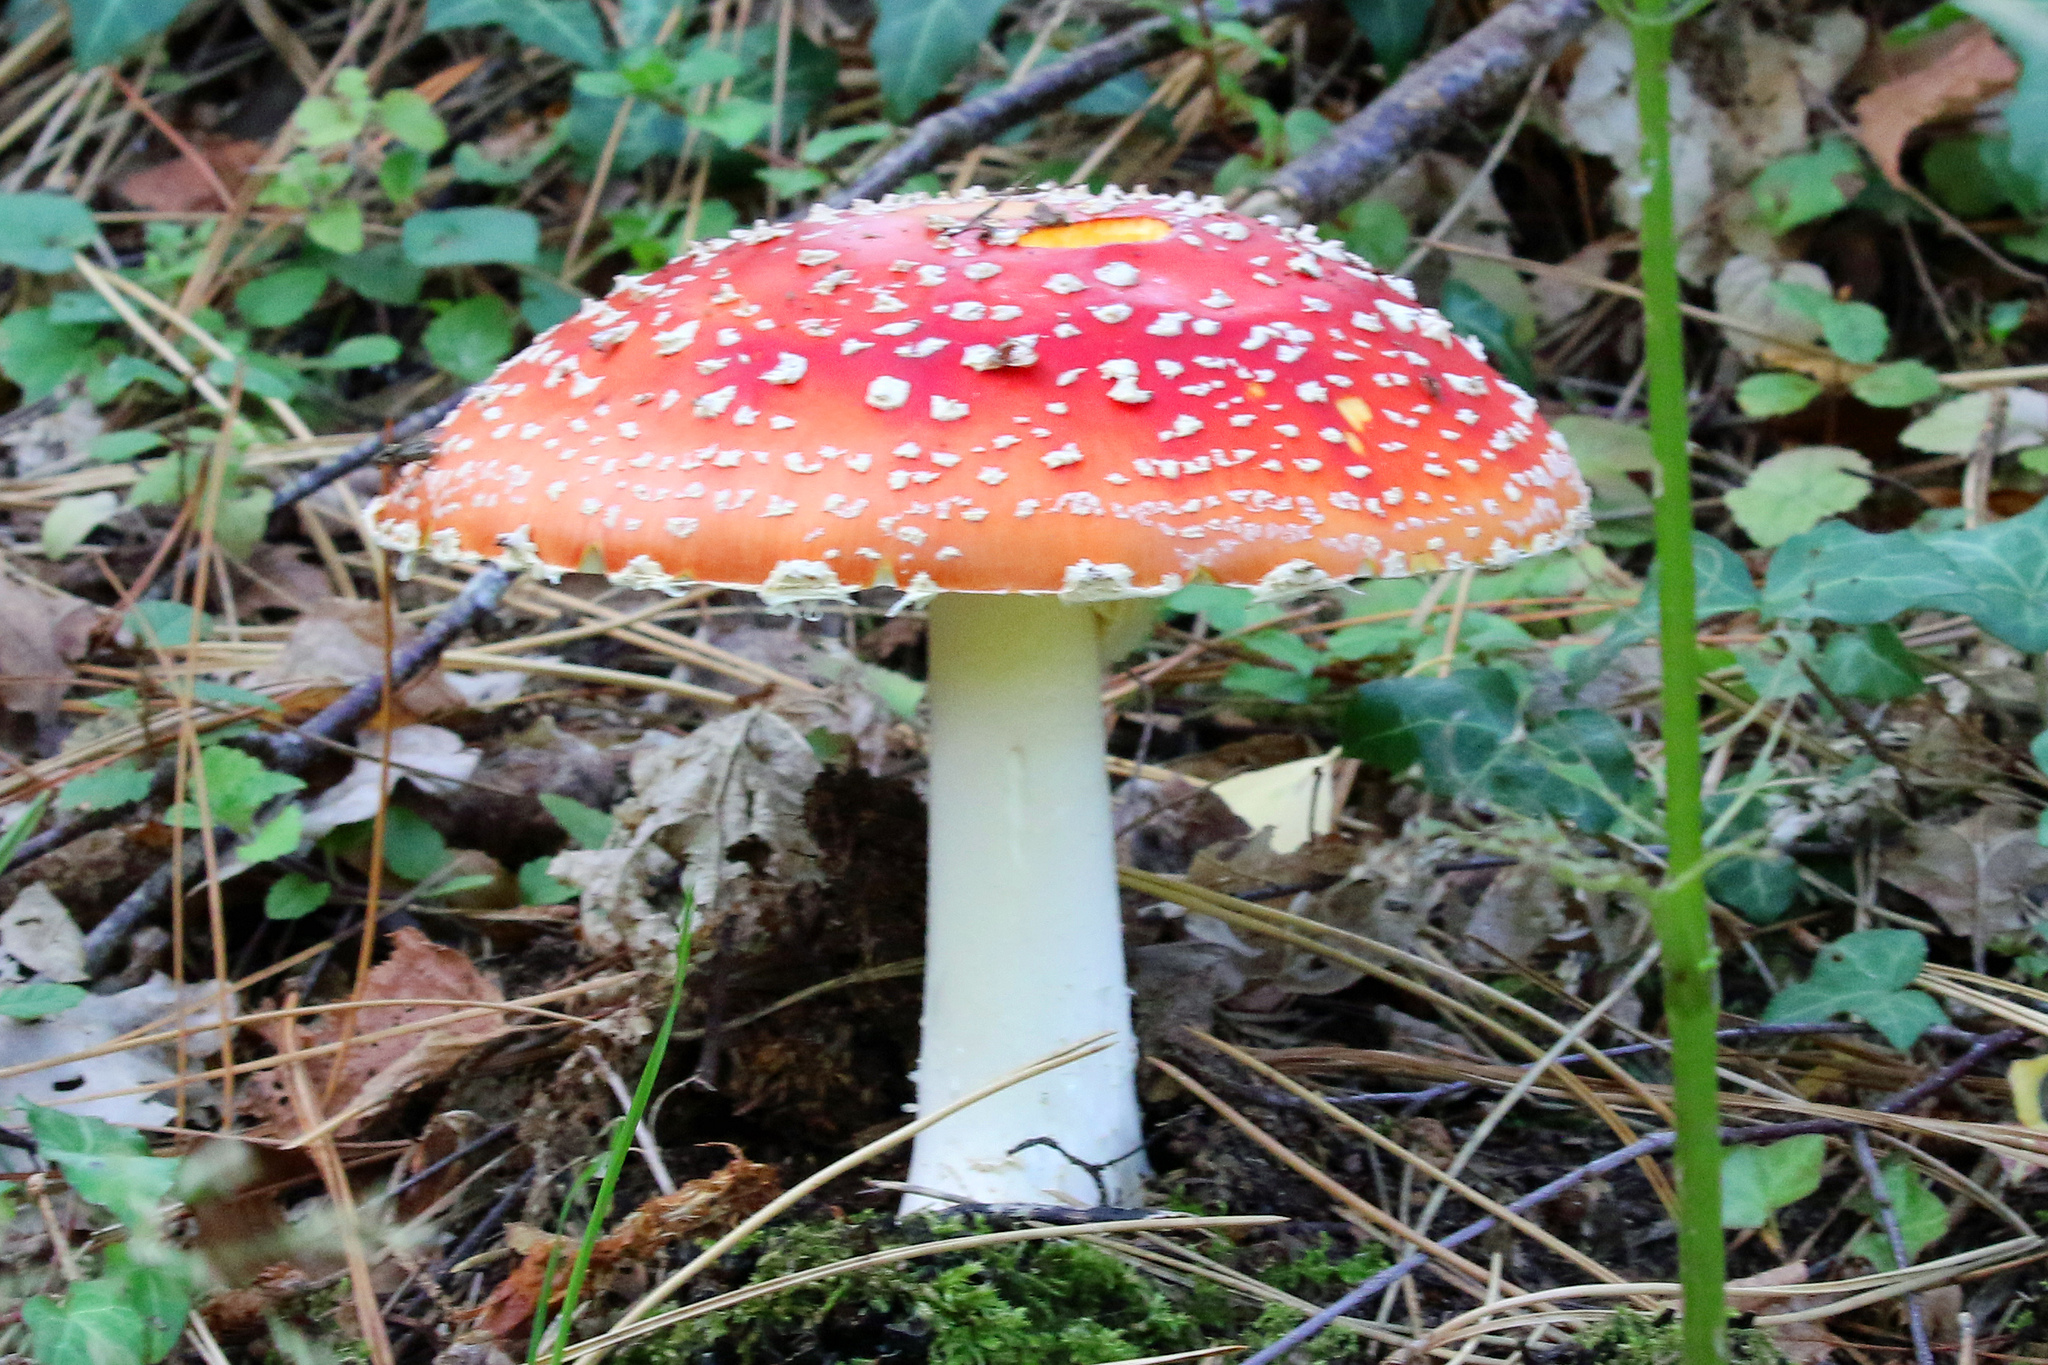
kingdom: Fungi
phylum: Basidiomycota
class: Agaricomycetes
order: Agaricales
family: Amanitaceae
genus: Amanita
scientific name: Amanita muscaria
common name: Fly agaric
